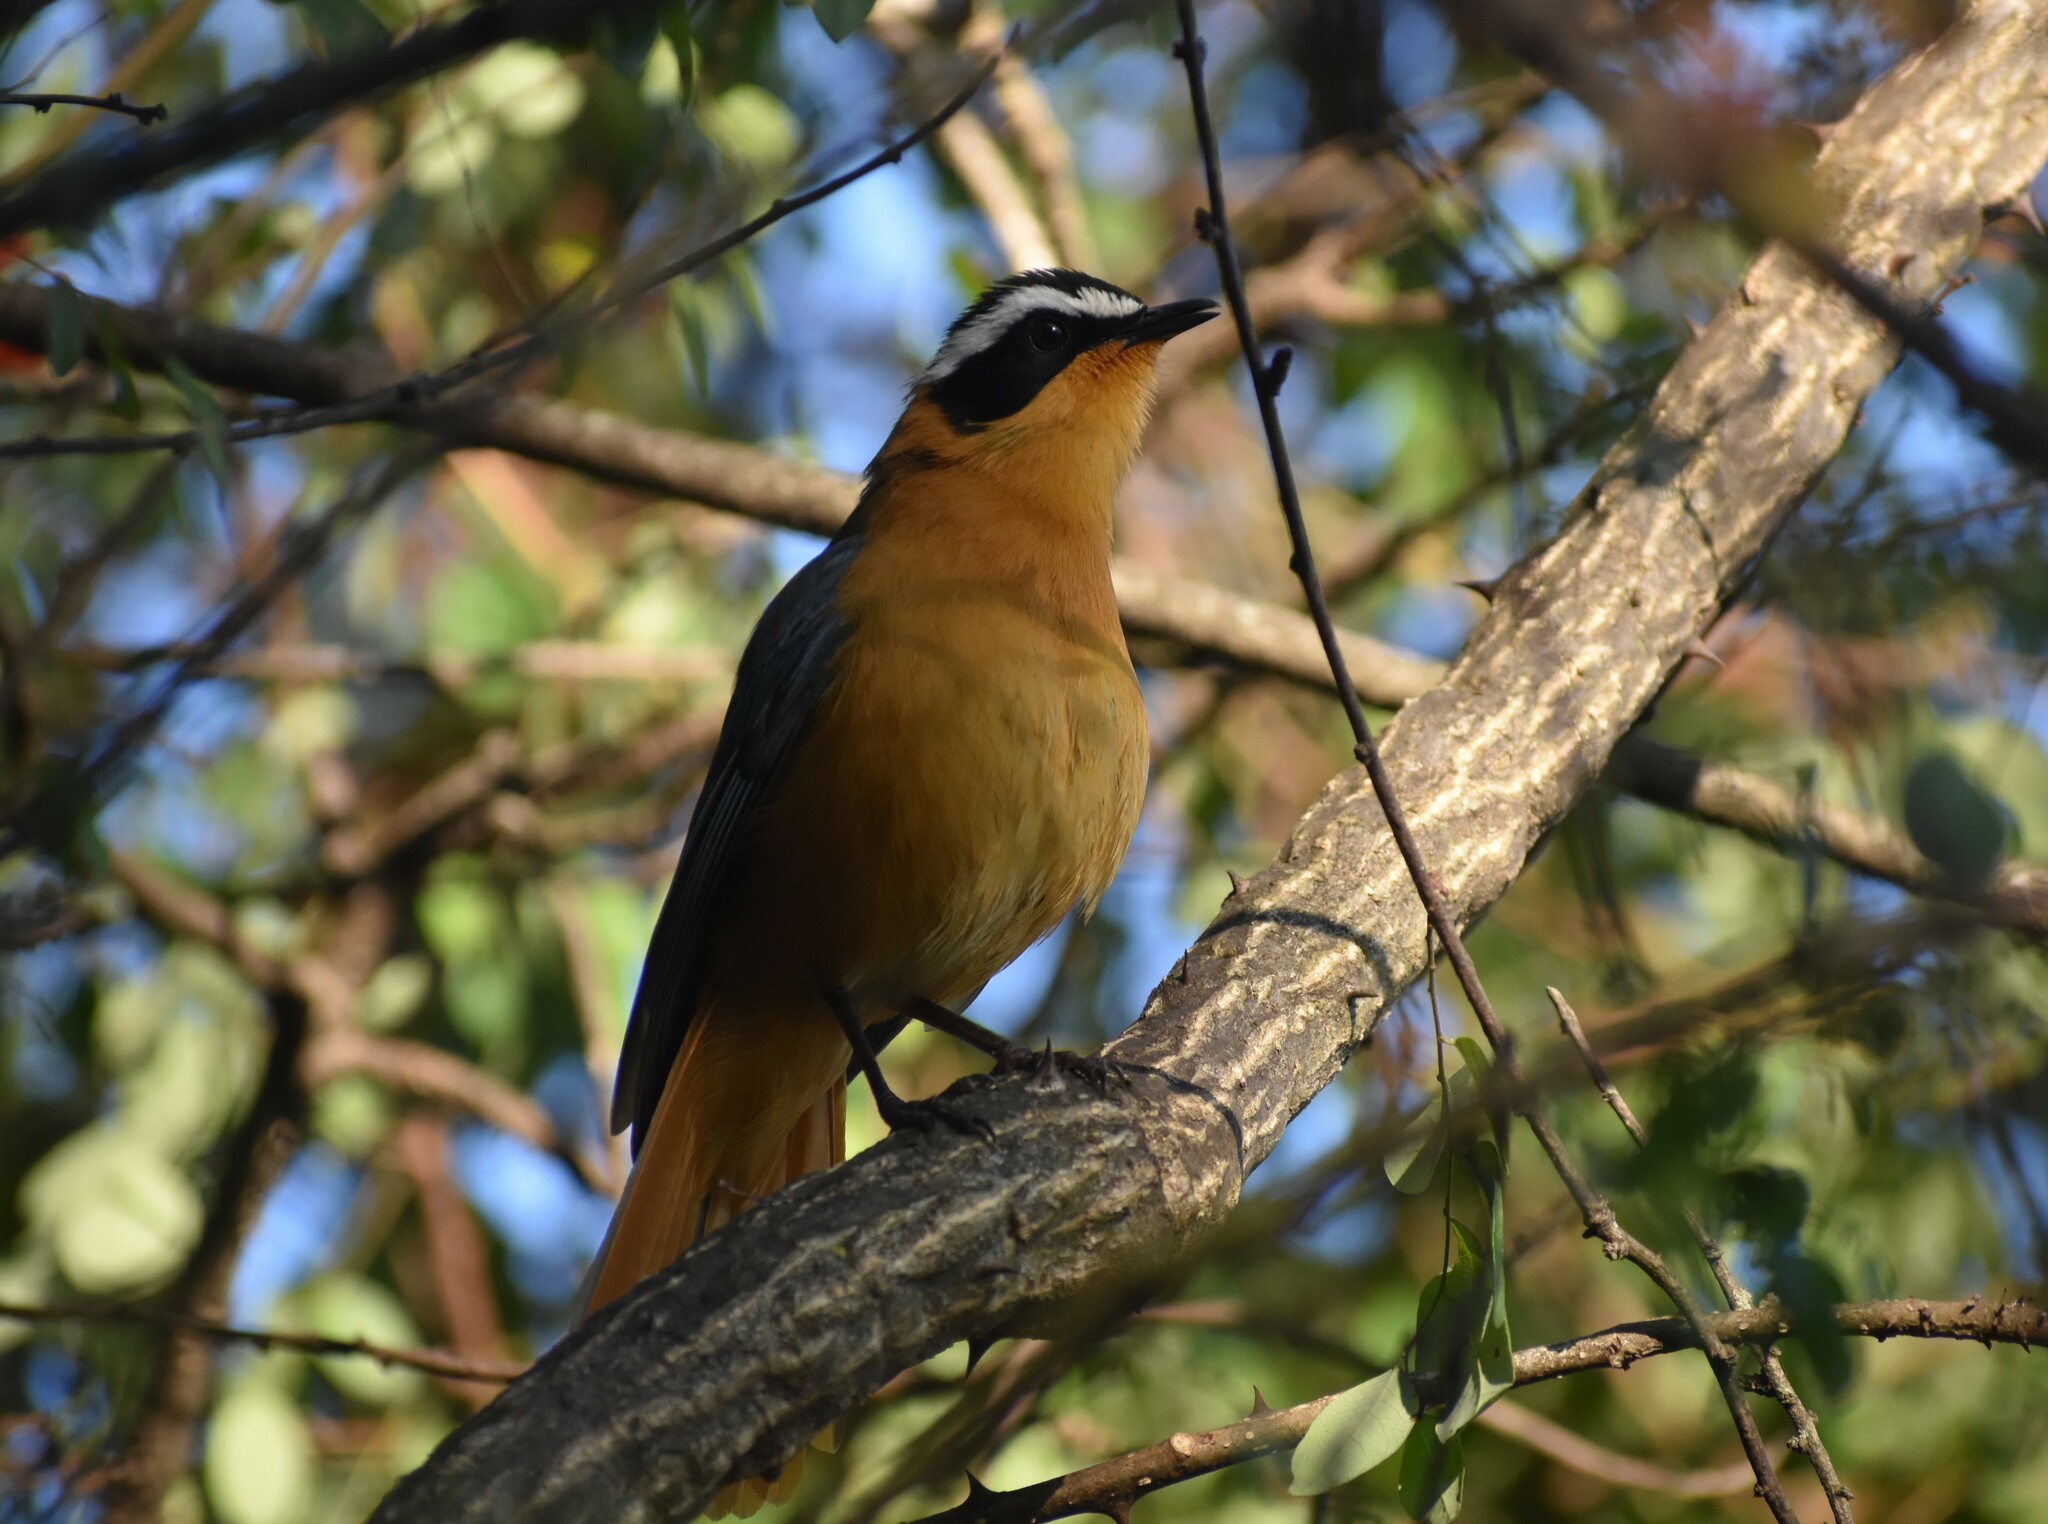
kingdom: Animalia
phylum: Chordata
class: Aves
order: Passeriformes
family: Muscicapidae
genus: Cossypha
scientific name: Cossypha heuglini
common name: White-browed robin-chat
